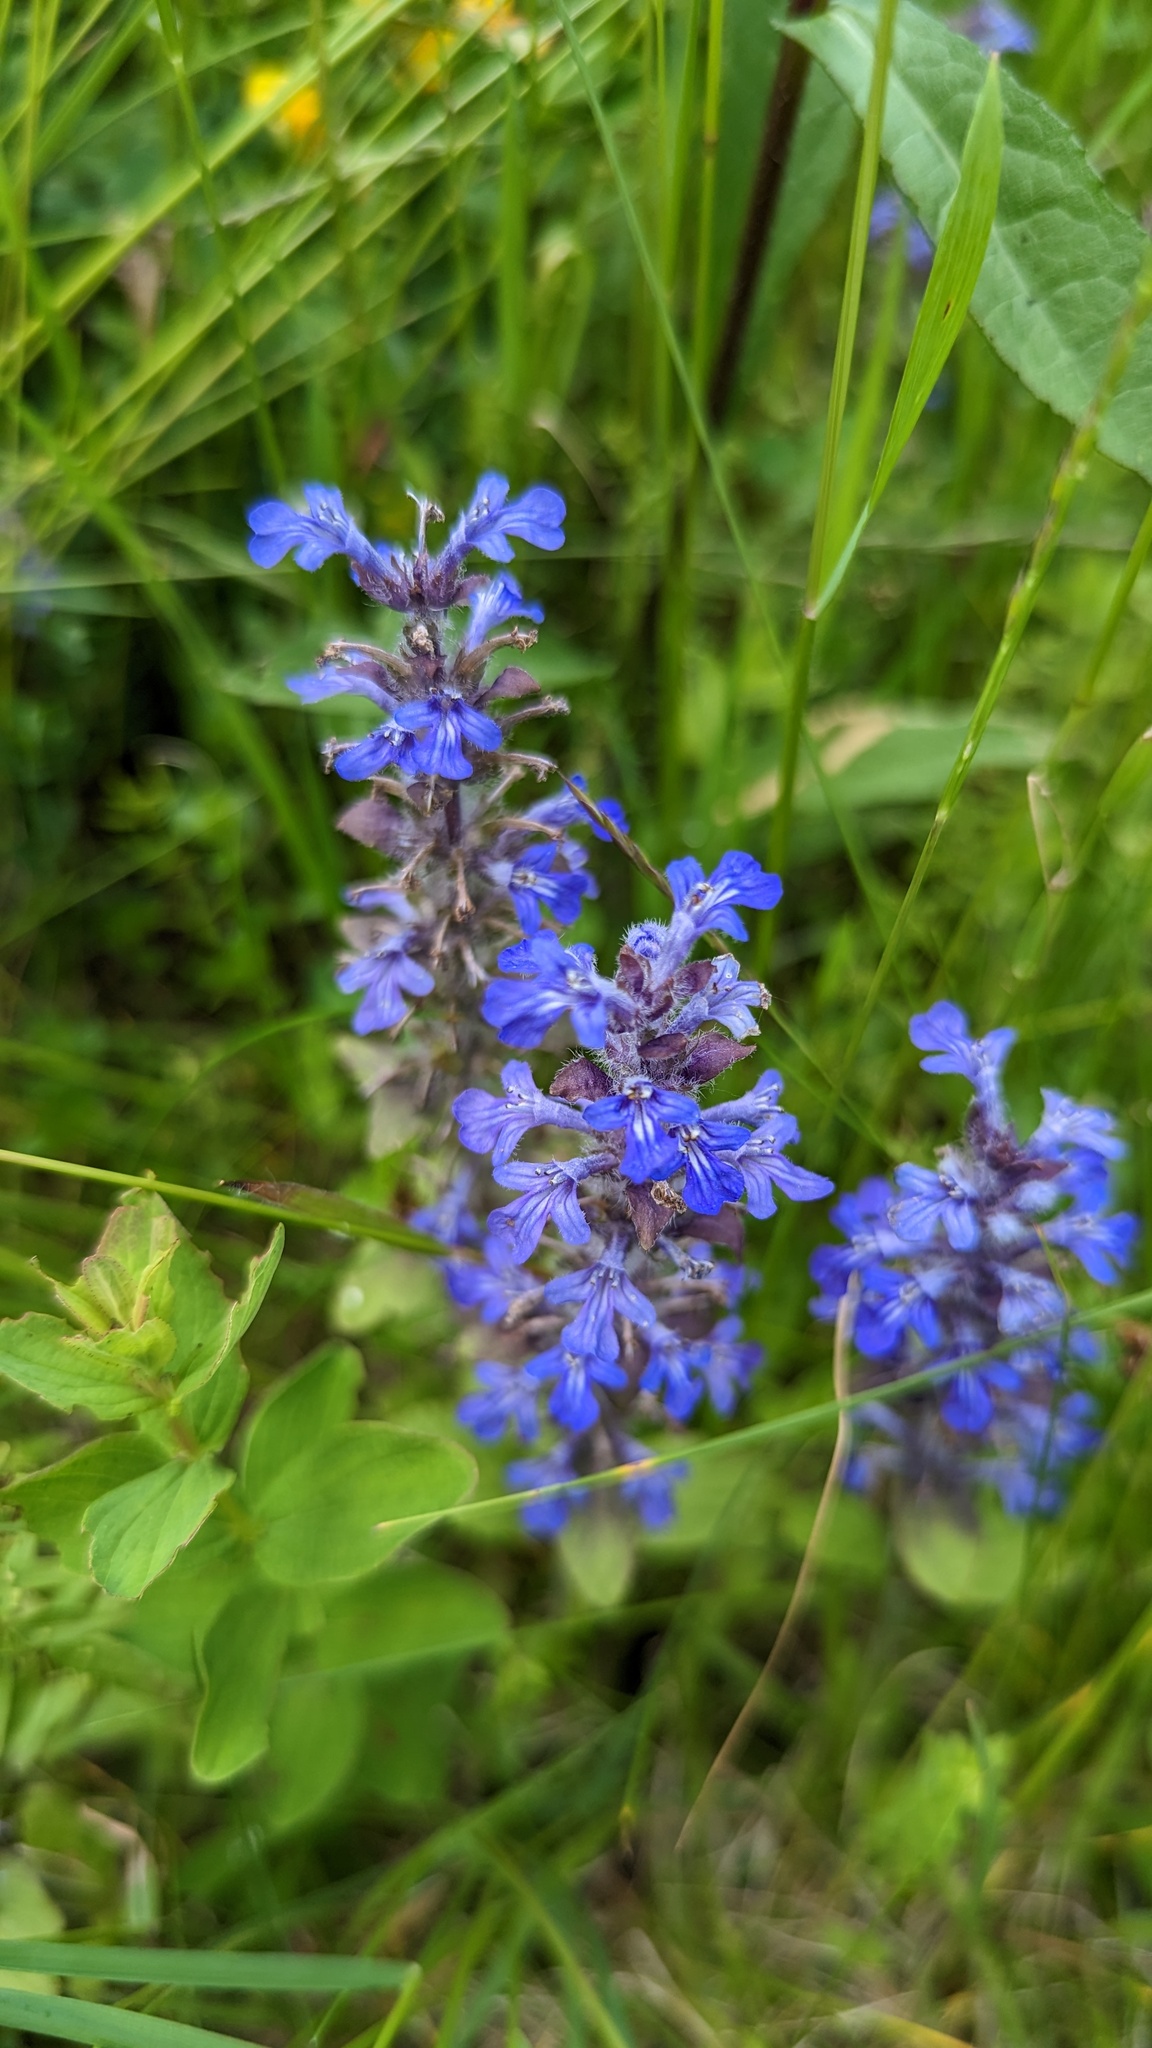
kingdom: Plantae
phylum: Tracheophyta
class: Magnoliopsida
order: Lamiales
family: Lamiaceae
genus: Ajuga
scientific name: Ajuga reptans
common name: Bugle
